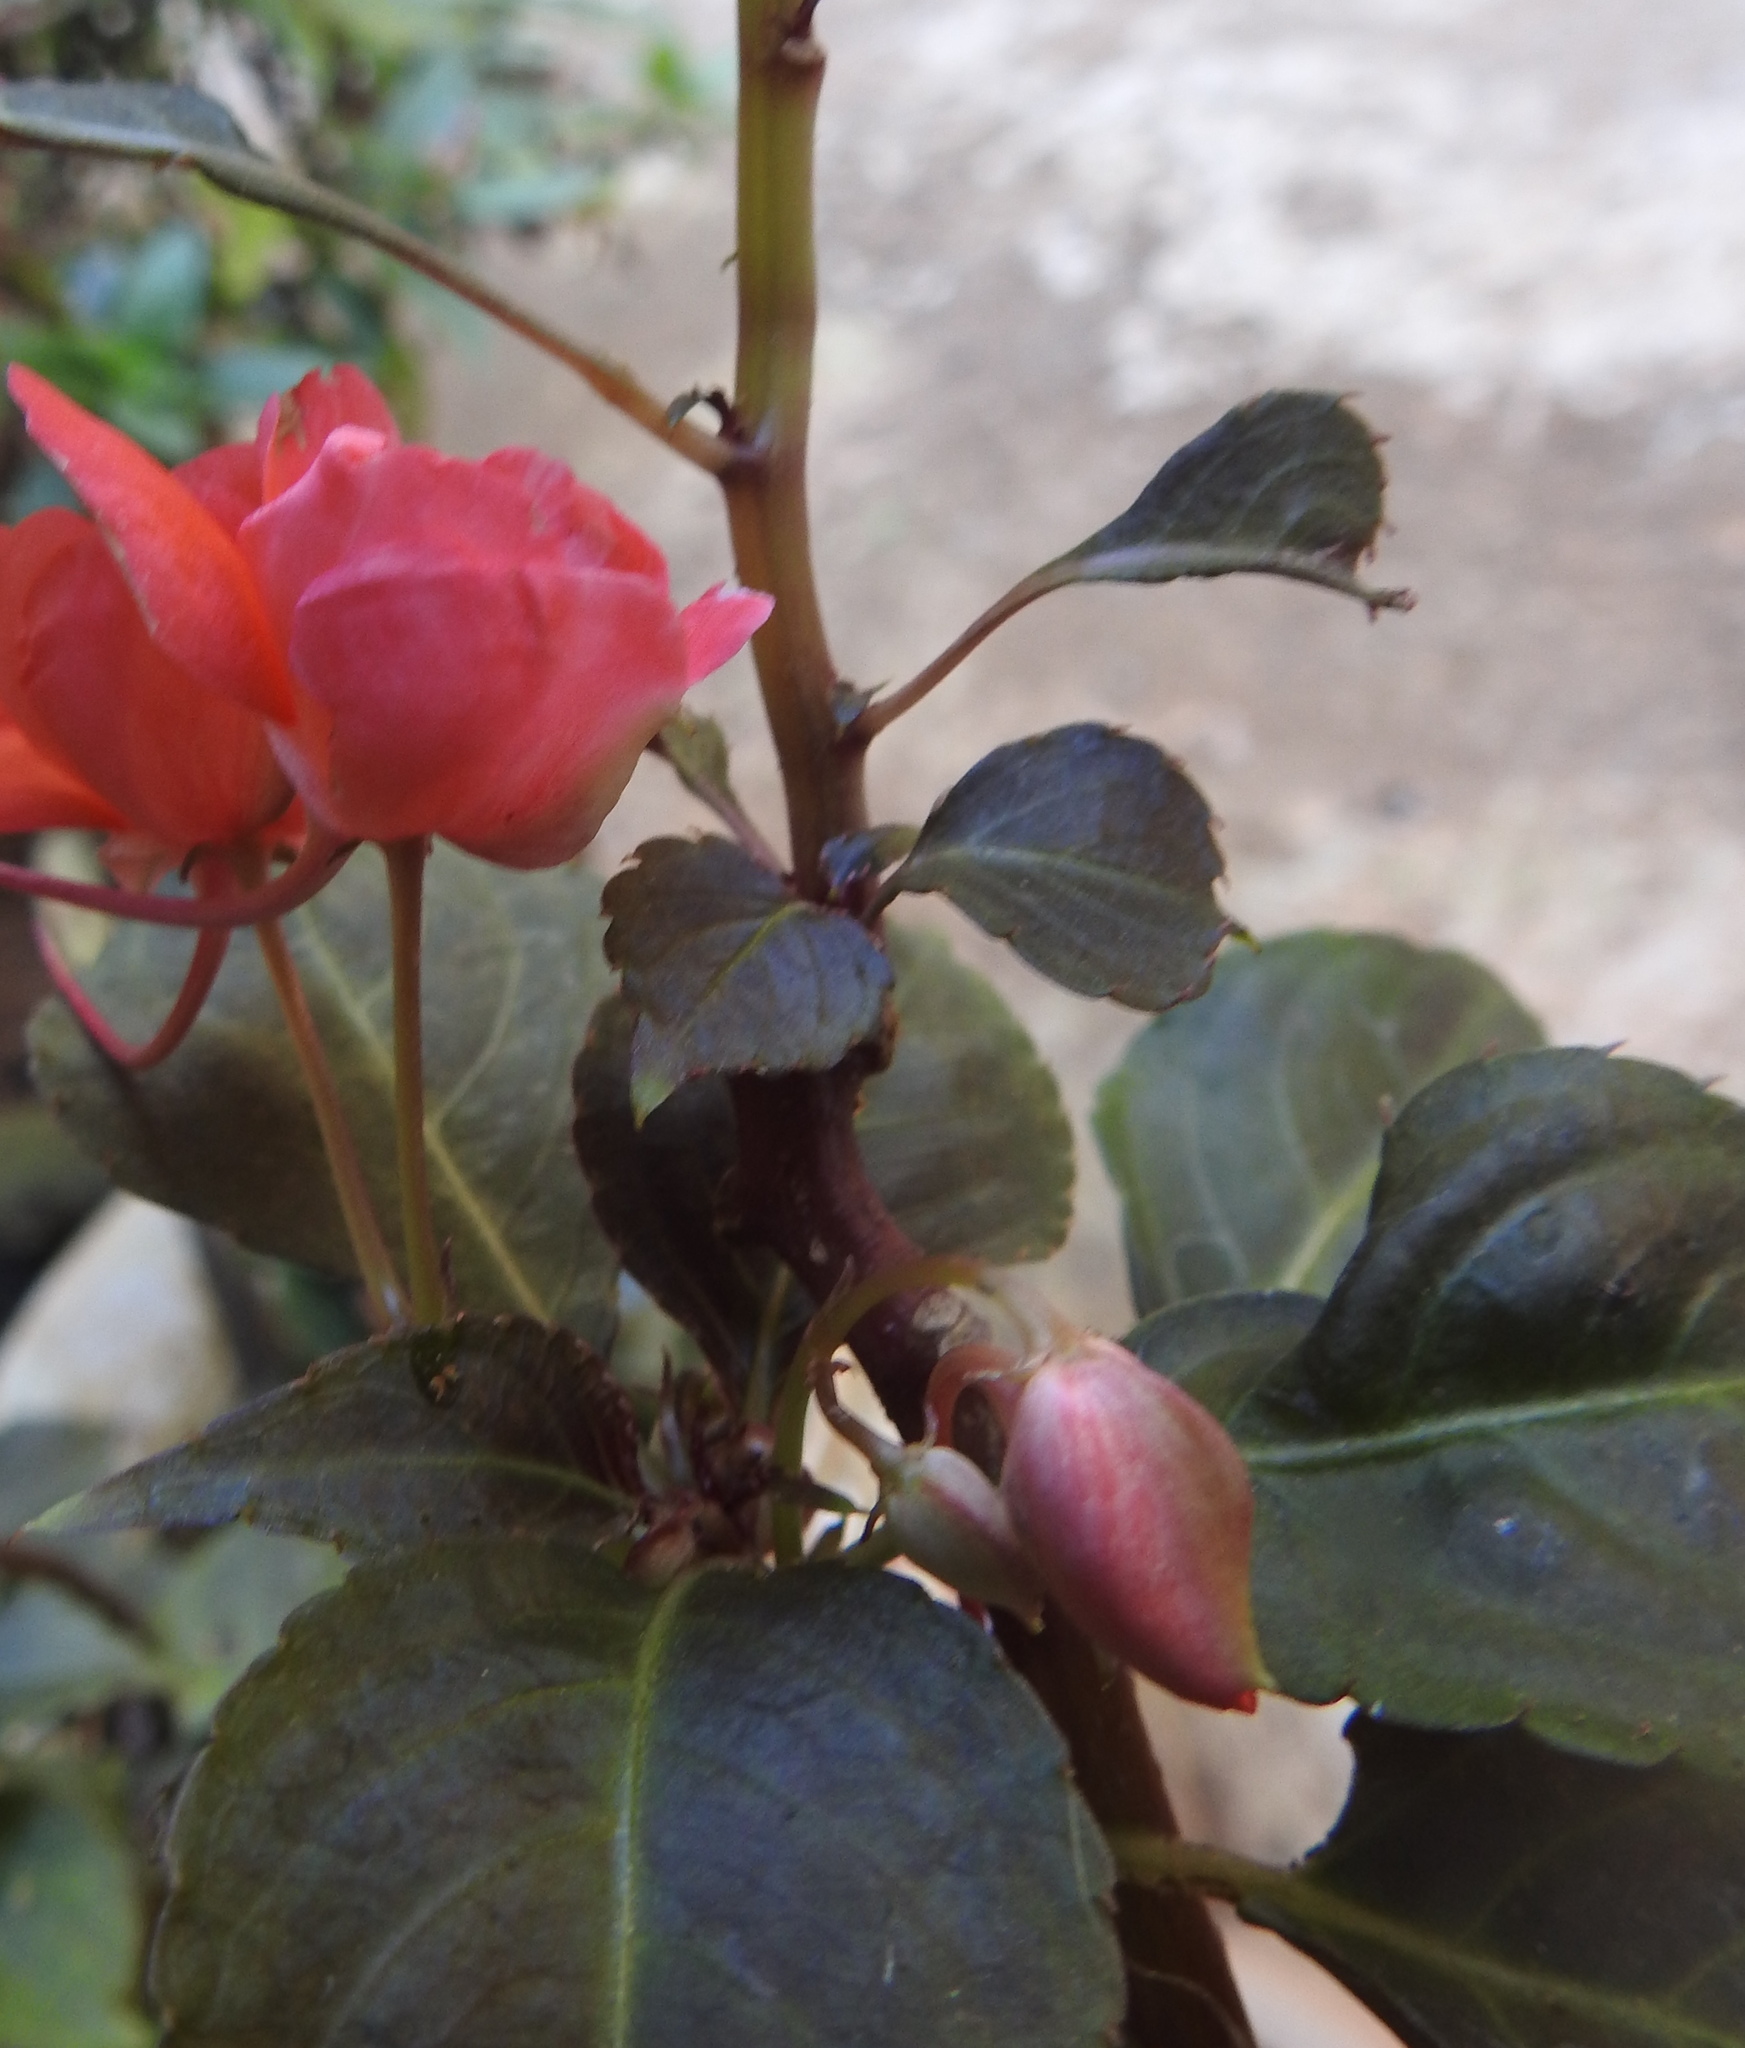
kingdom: Plantae
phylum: Tracheophyta
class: Magnoliopsida
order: Ericales
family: Balsaminaceae
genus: Impatiens
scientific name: Impatiens walleriana
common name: Buzzy lizzy
